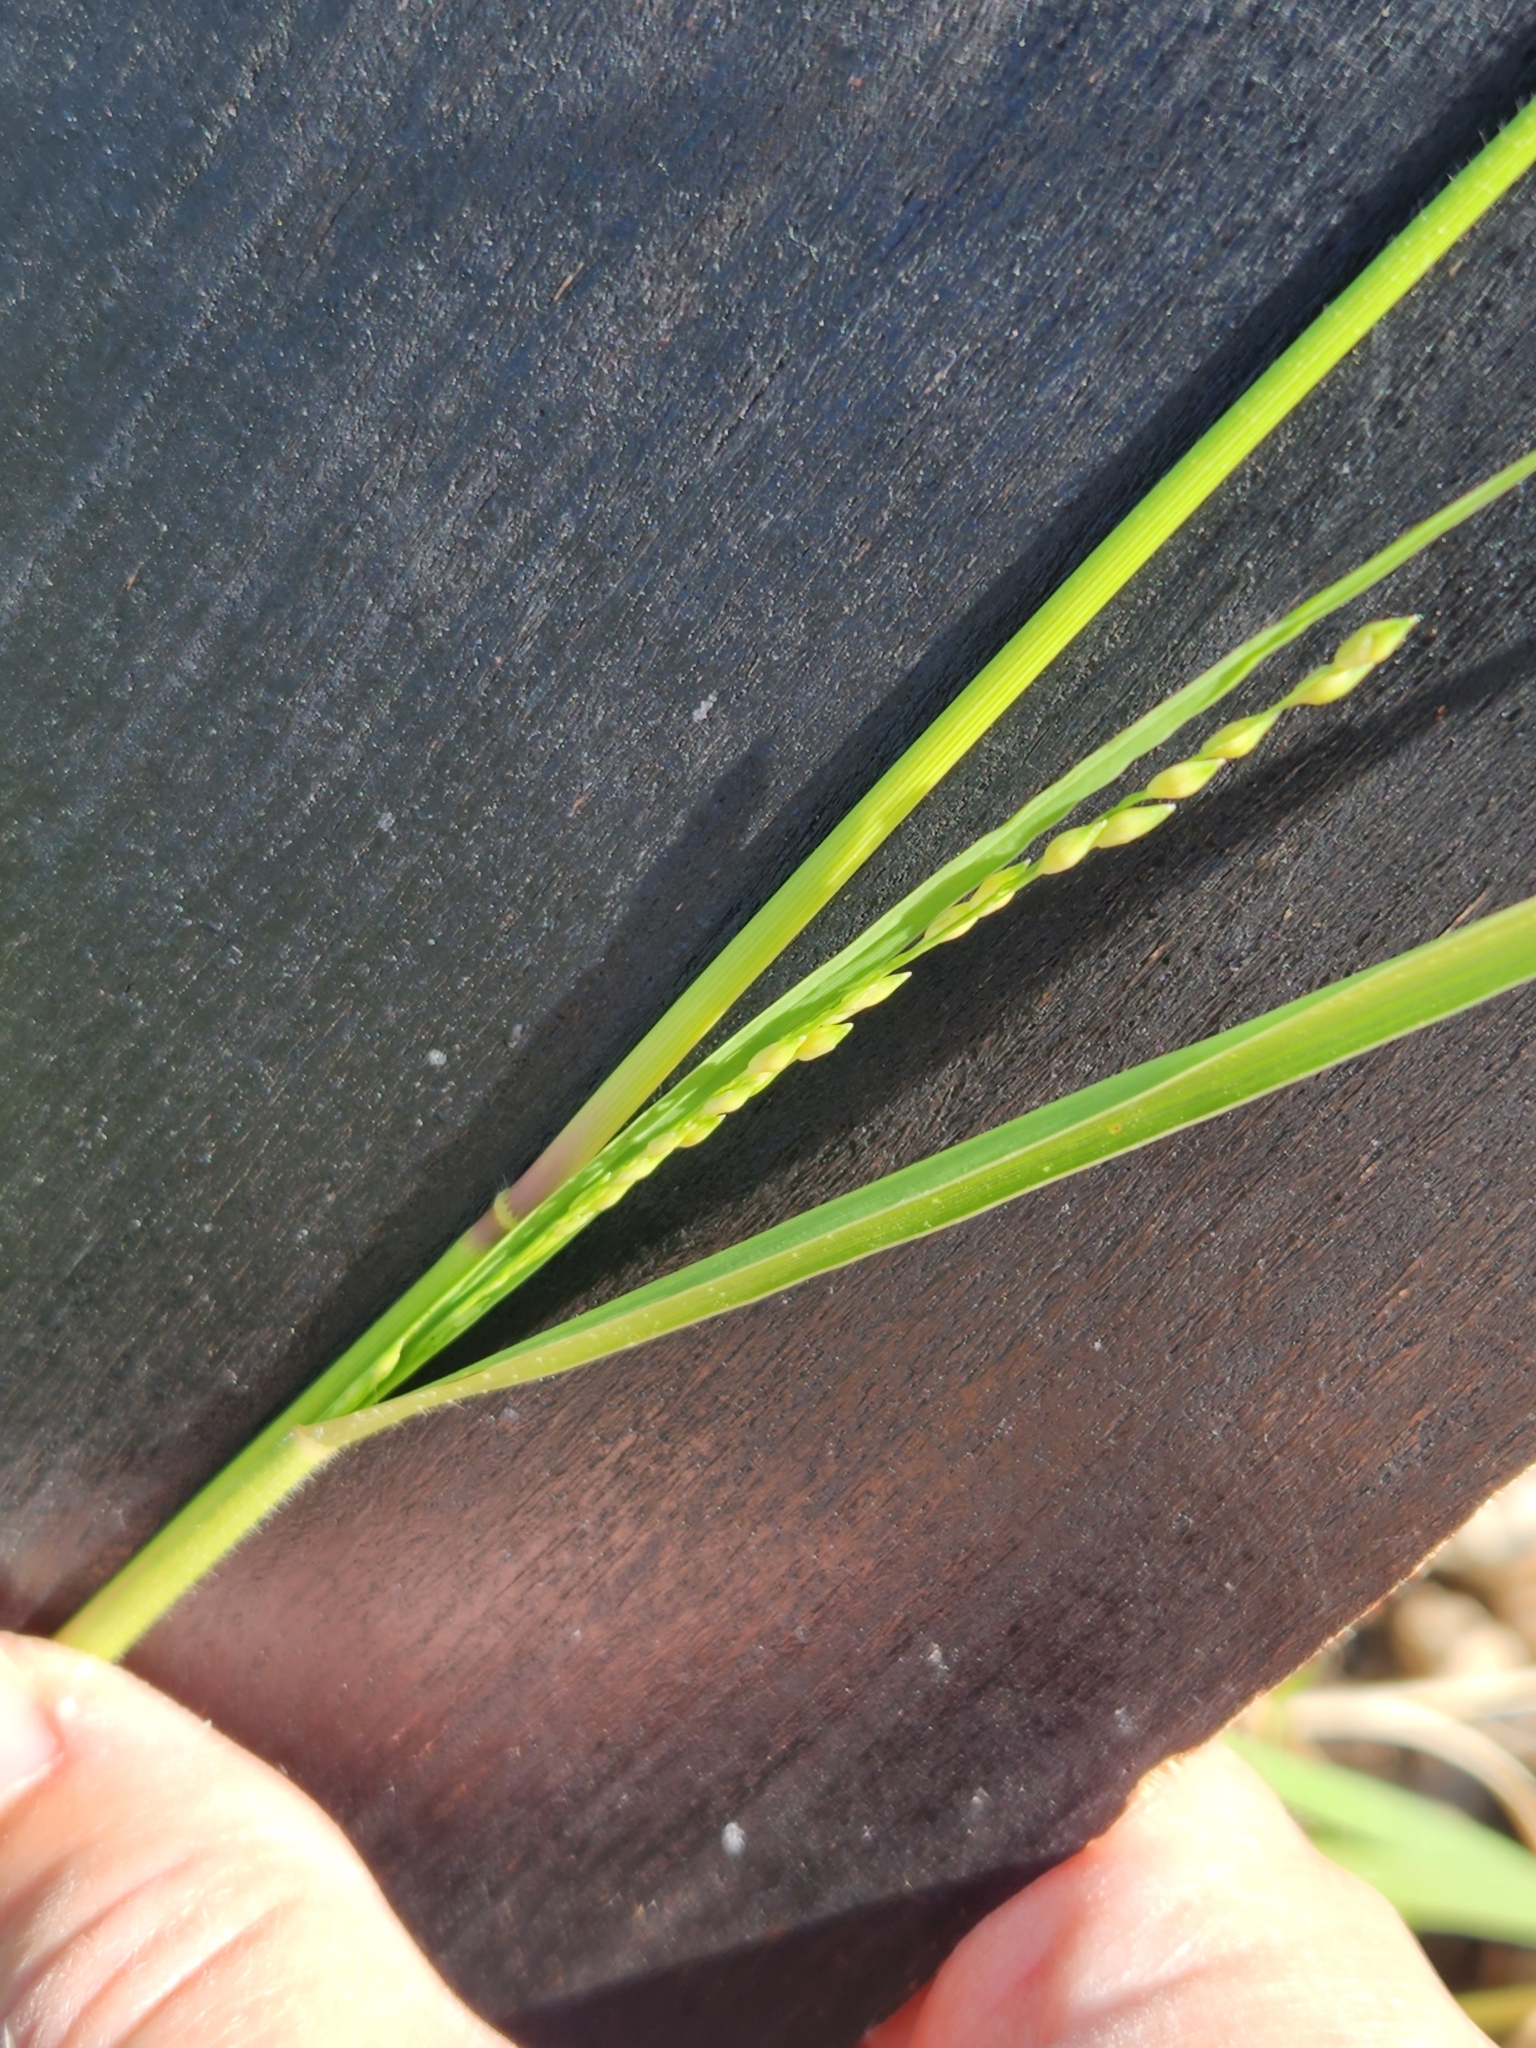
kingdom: Plantae
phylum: Tracheophyta
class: Liliopsida
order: Poales
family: Poaceae
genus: Panicum
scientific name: Panicum hallii
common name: Hall's witchgrass
